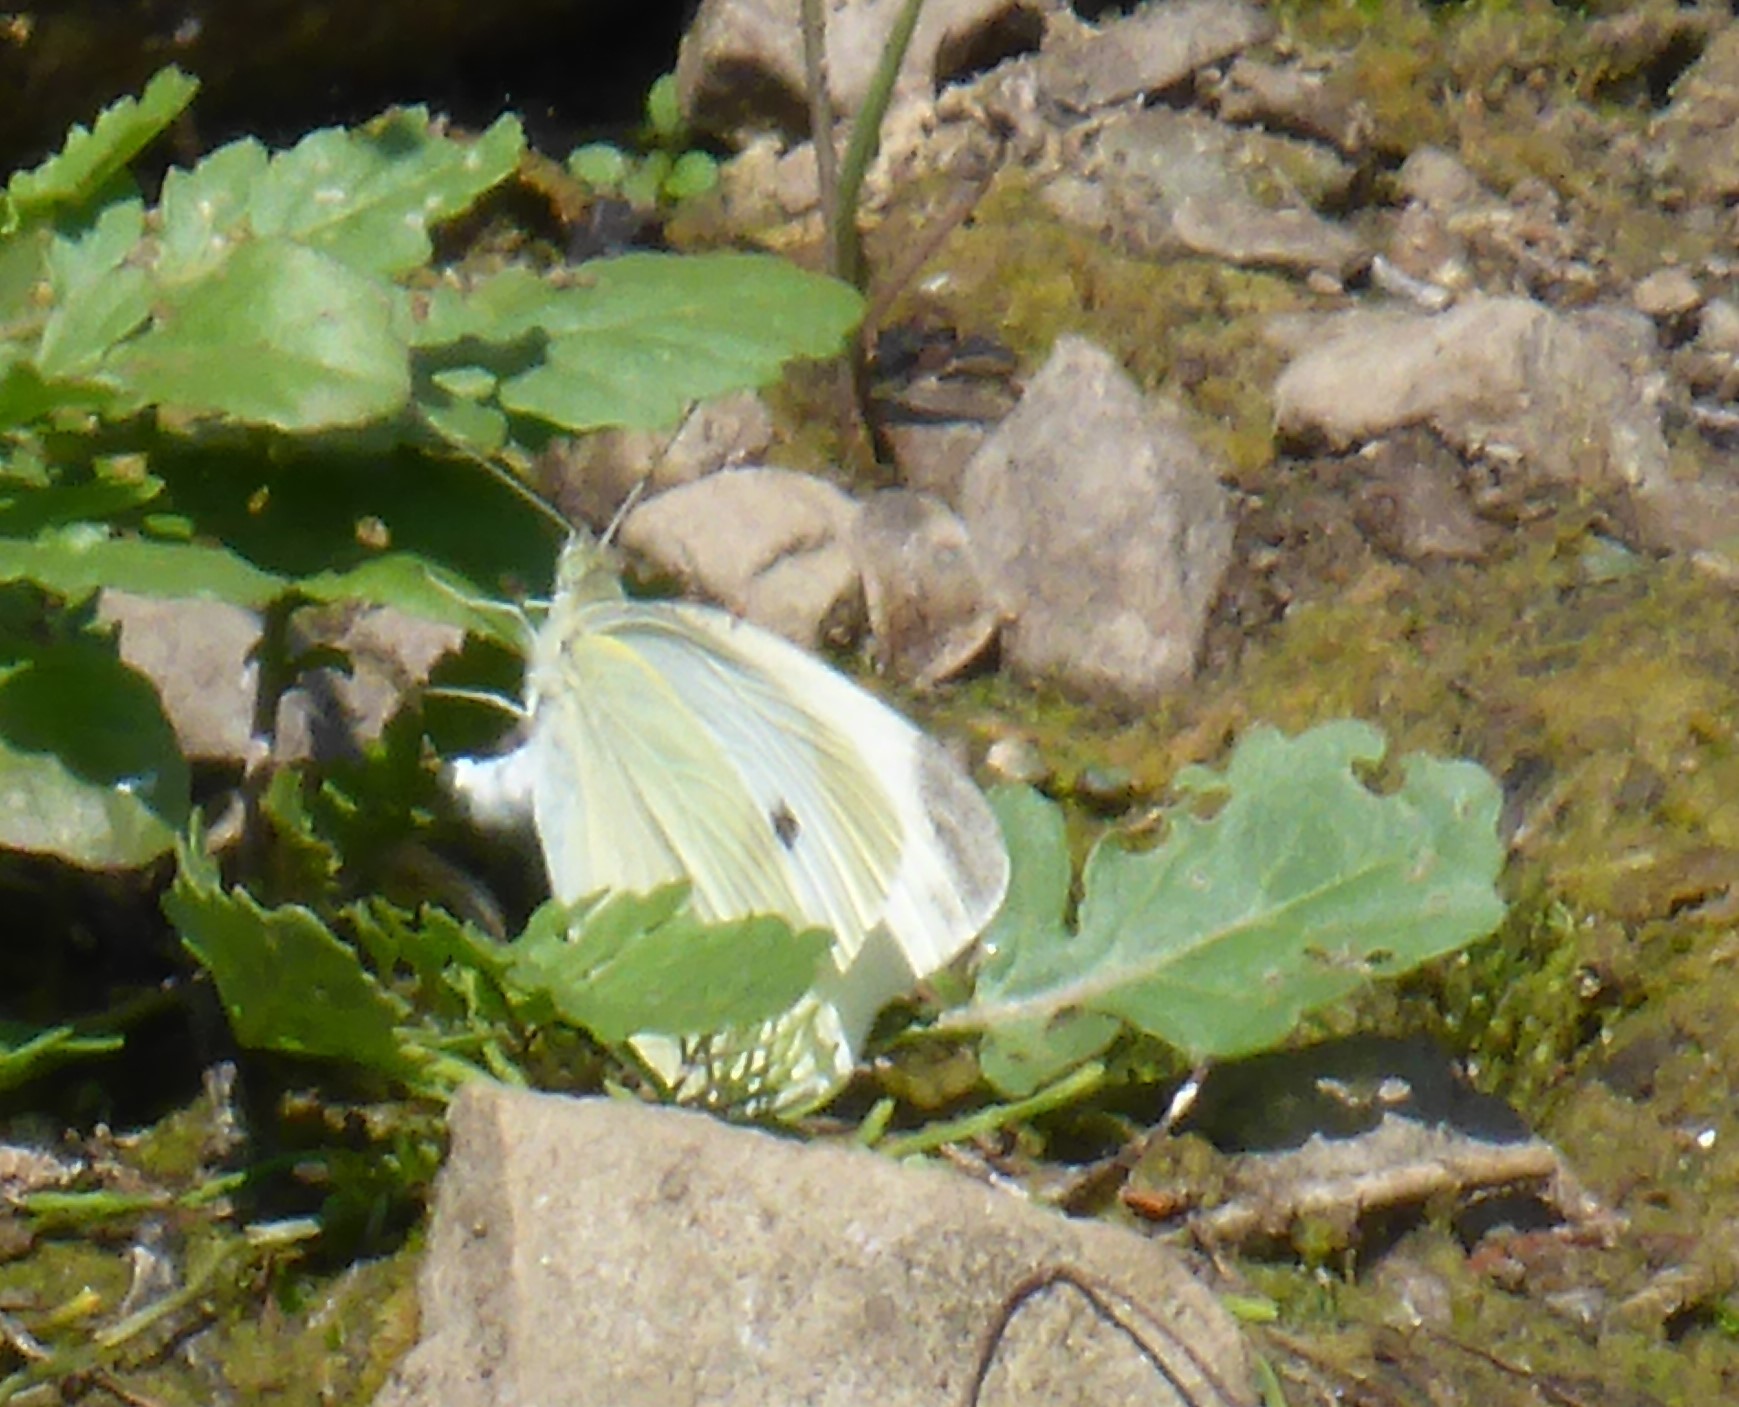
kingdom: Animalia
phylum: Arthropoda
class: Insecta
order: Lepidoptera
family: Pieridae
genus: Pieris
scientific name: Pieris rapae
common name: Small white
